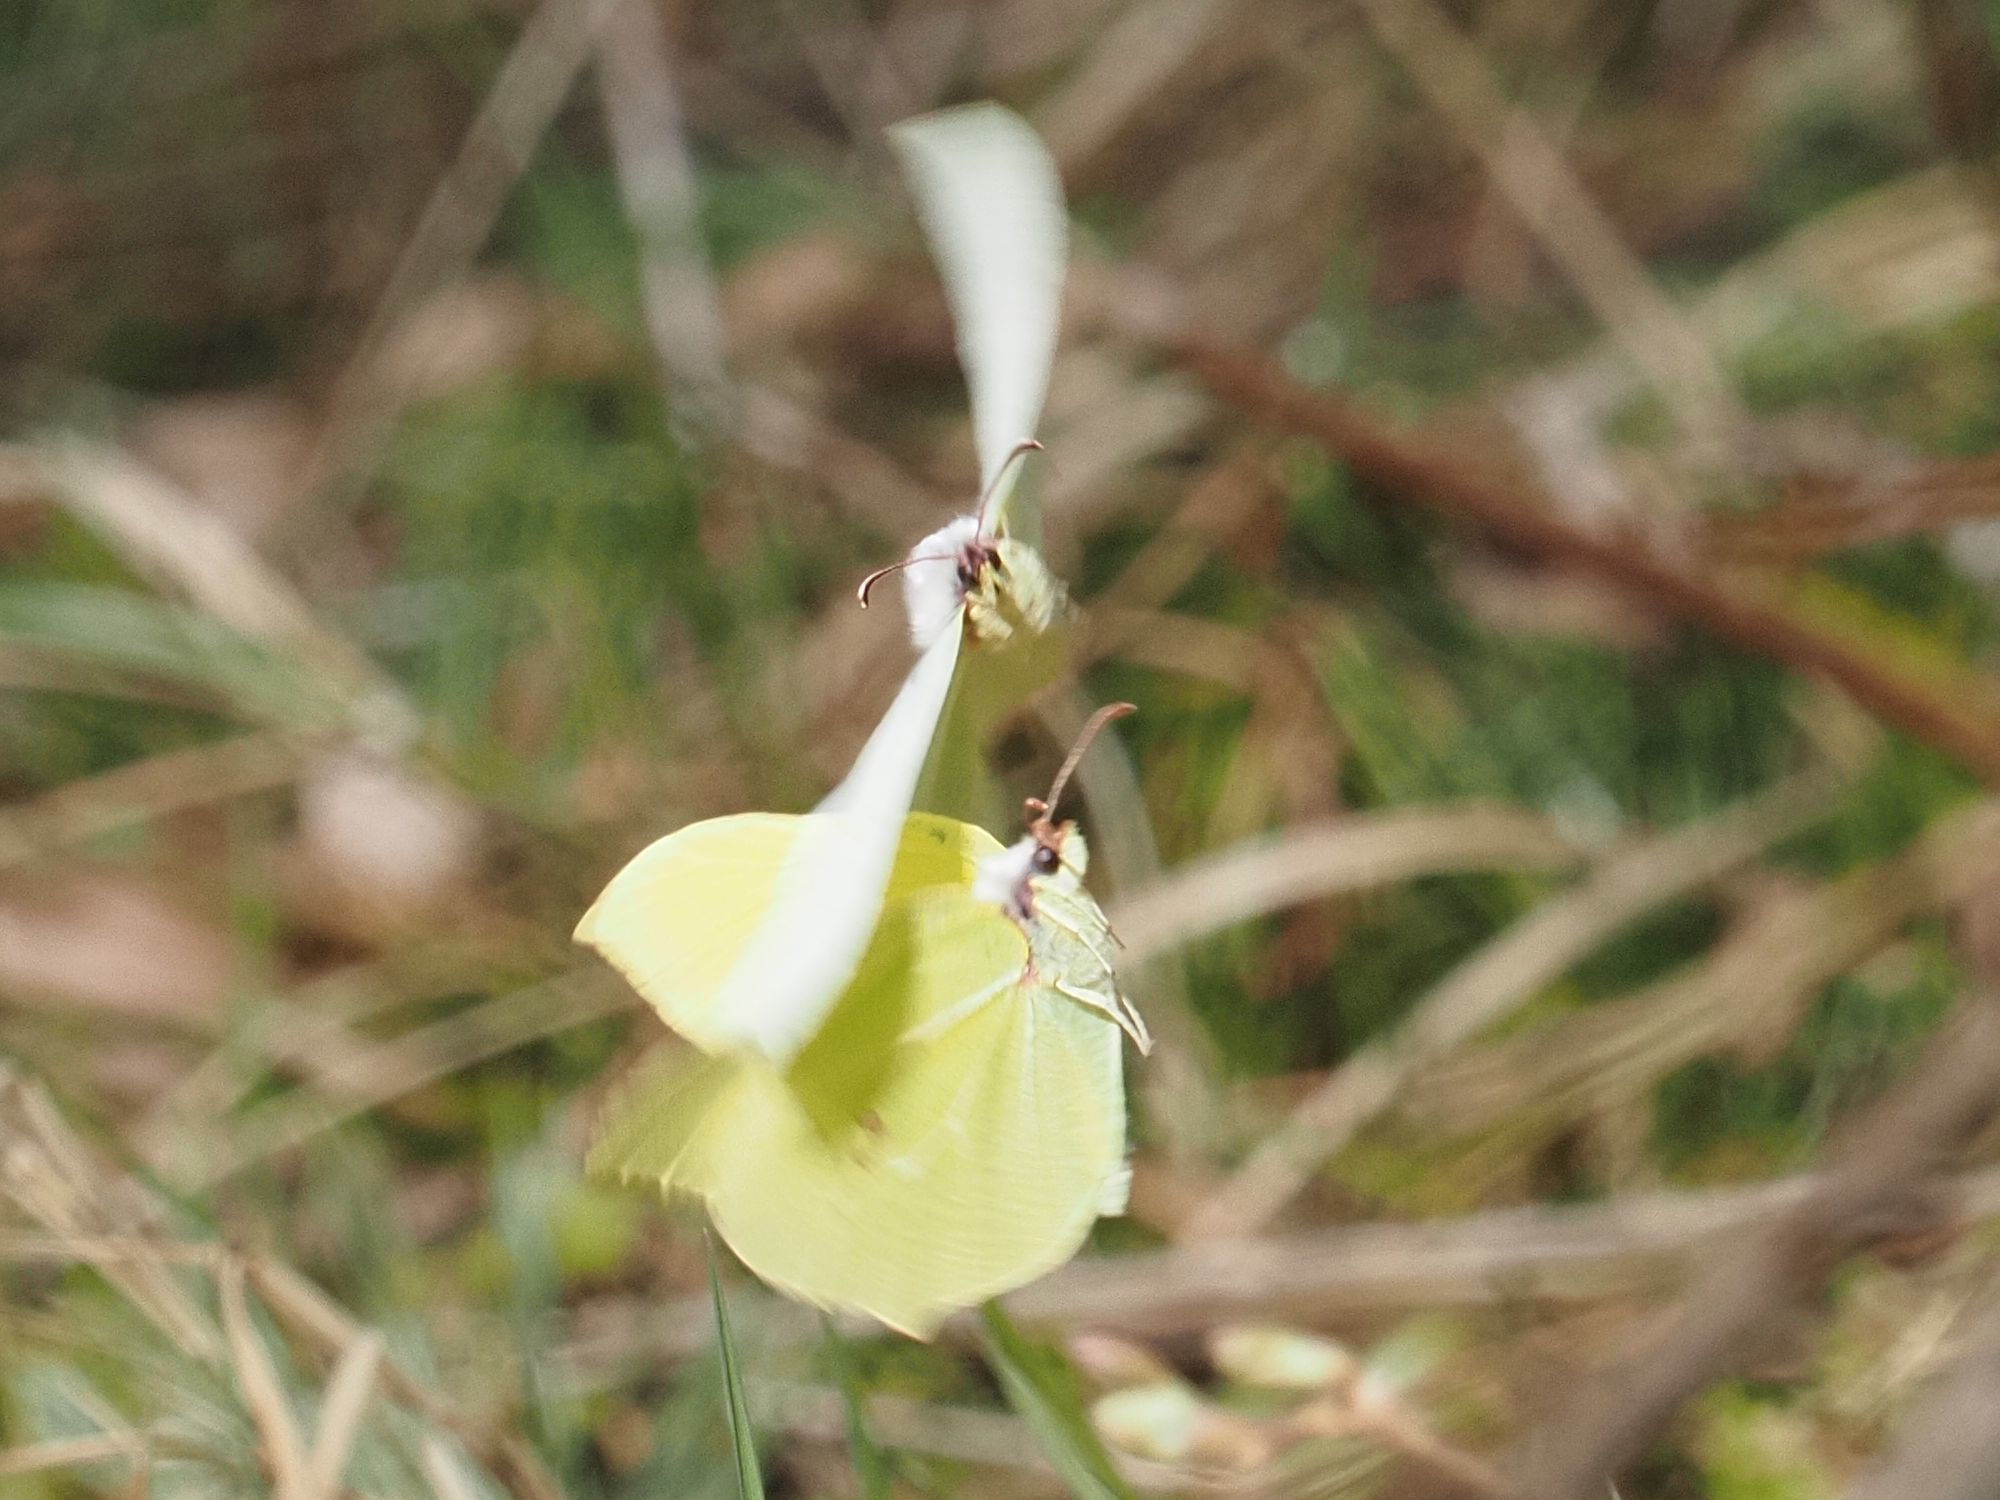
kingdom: Animalia
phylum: Arthropoda
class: Insecta
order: Lepidoptera
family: Pieridae
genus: Gonepteryx
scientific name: Gonepteryx rhamni
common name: Brimstone
